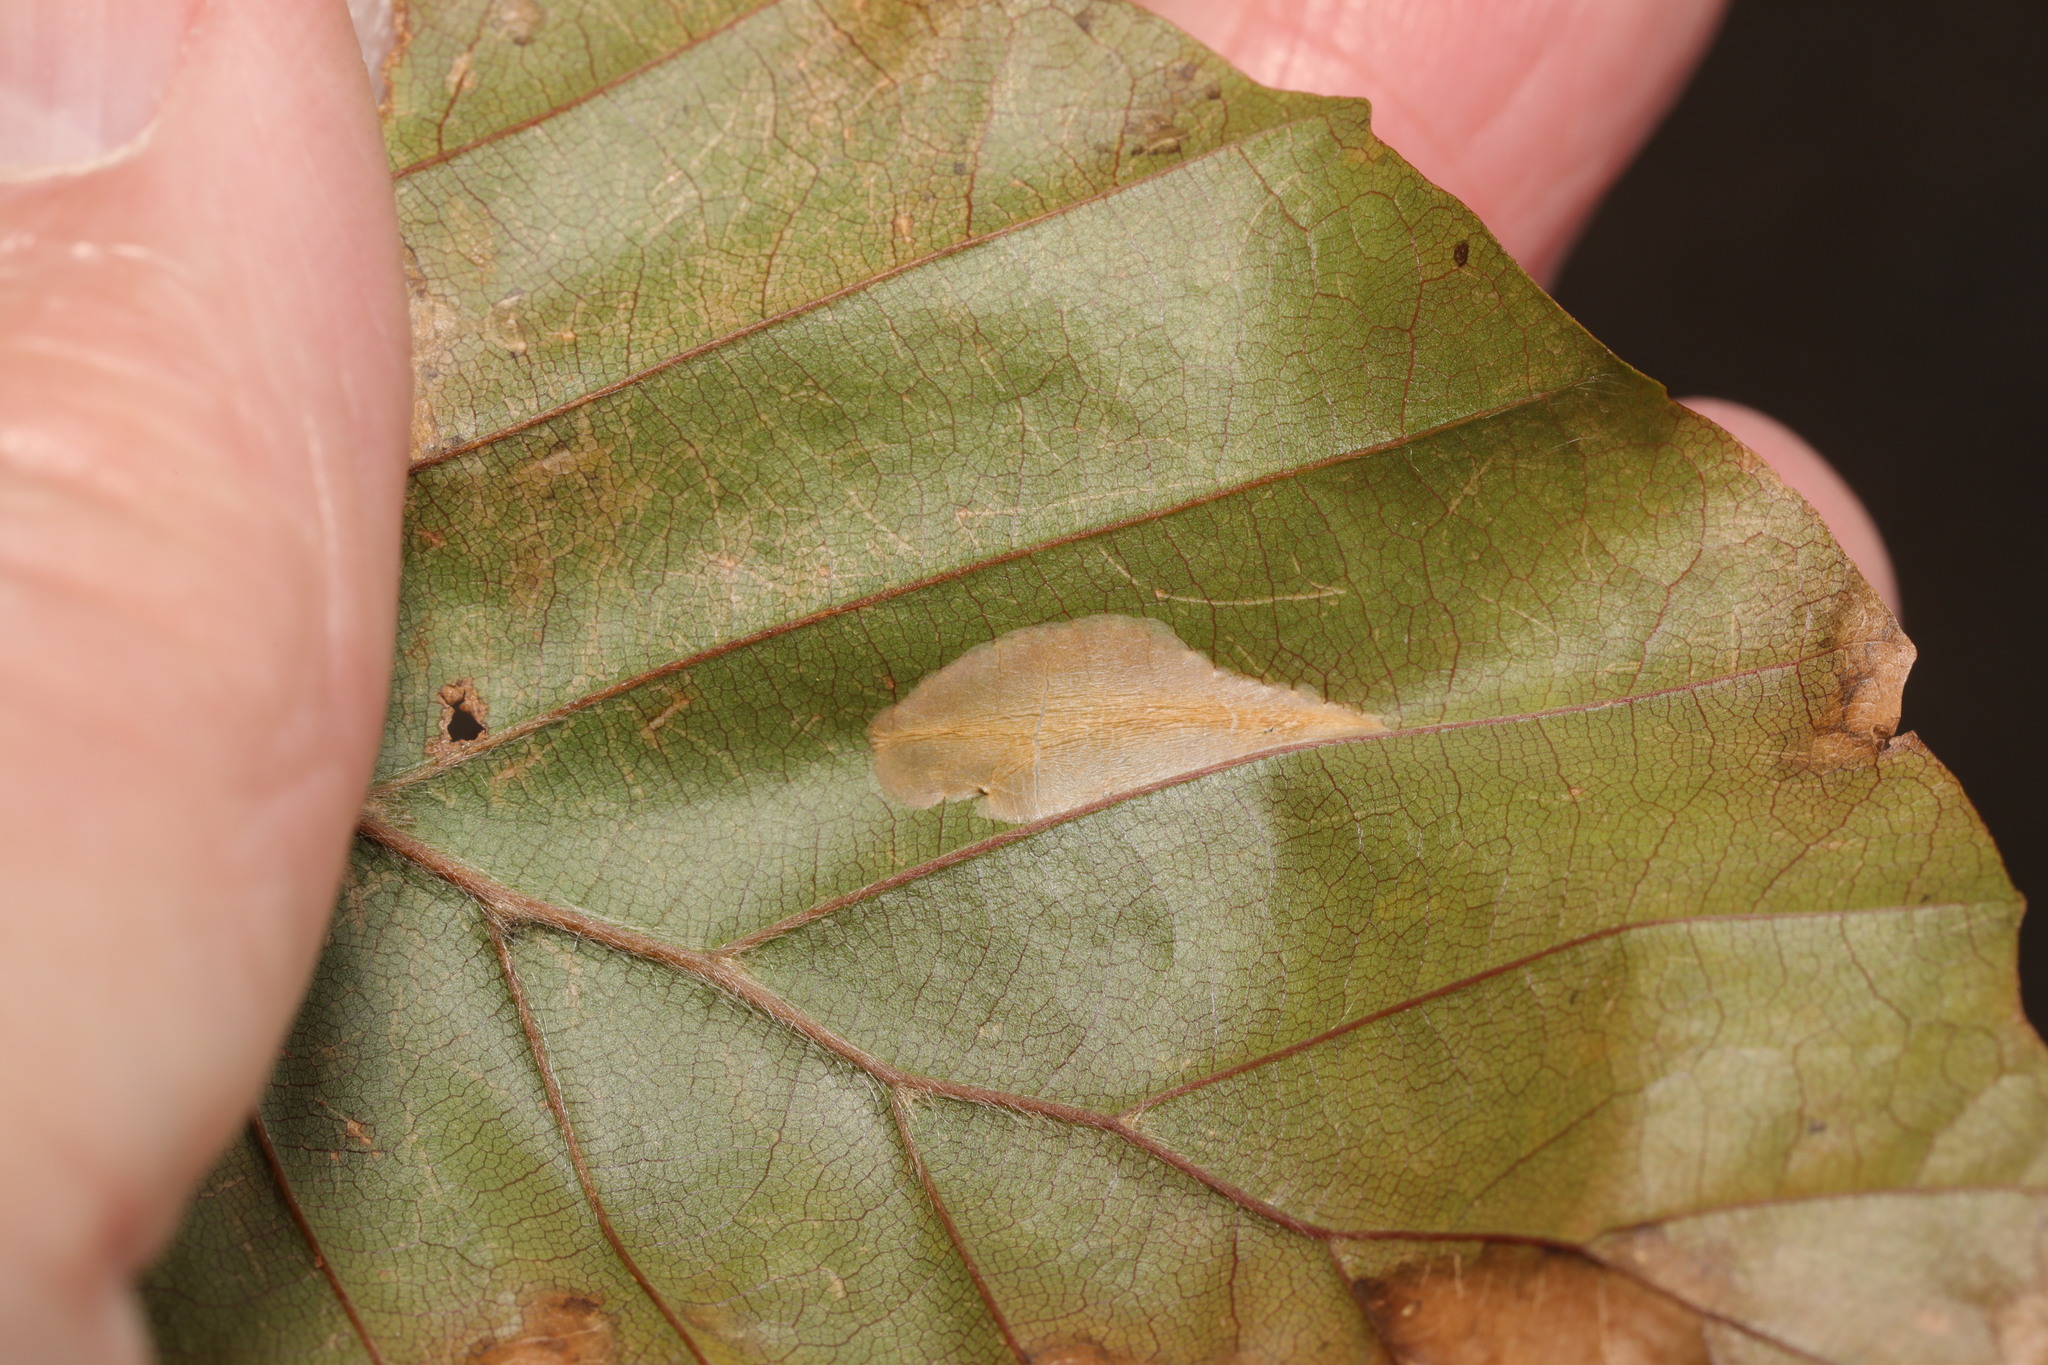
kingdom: Animalia
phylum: Arthropoda
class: Insecta
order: Lepidoptera
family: Gracillariidae
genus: Phyllonorycter
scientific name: Phyllonorycter maestingella
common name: Beech midget
